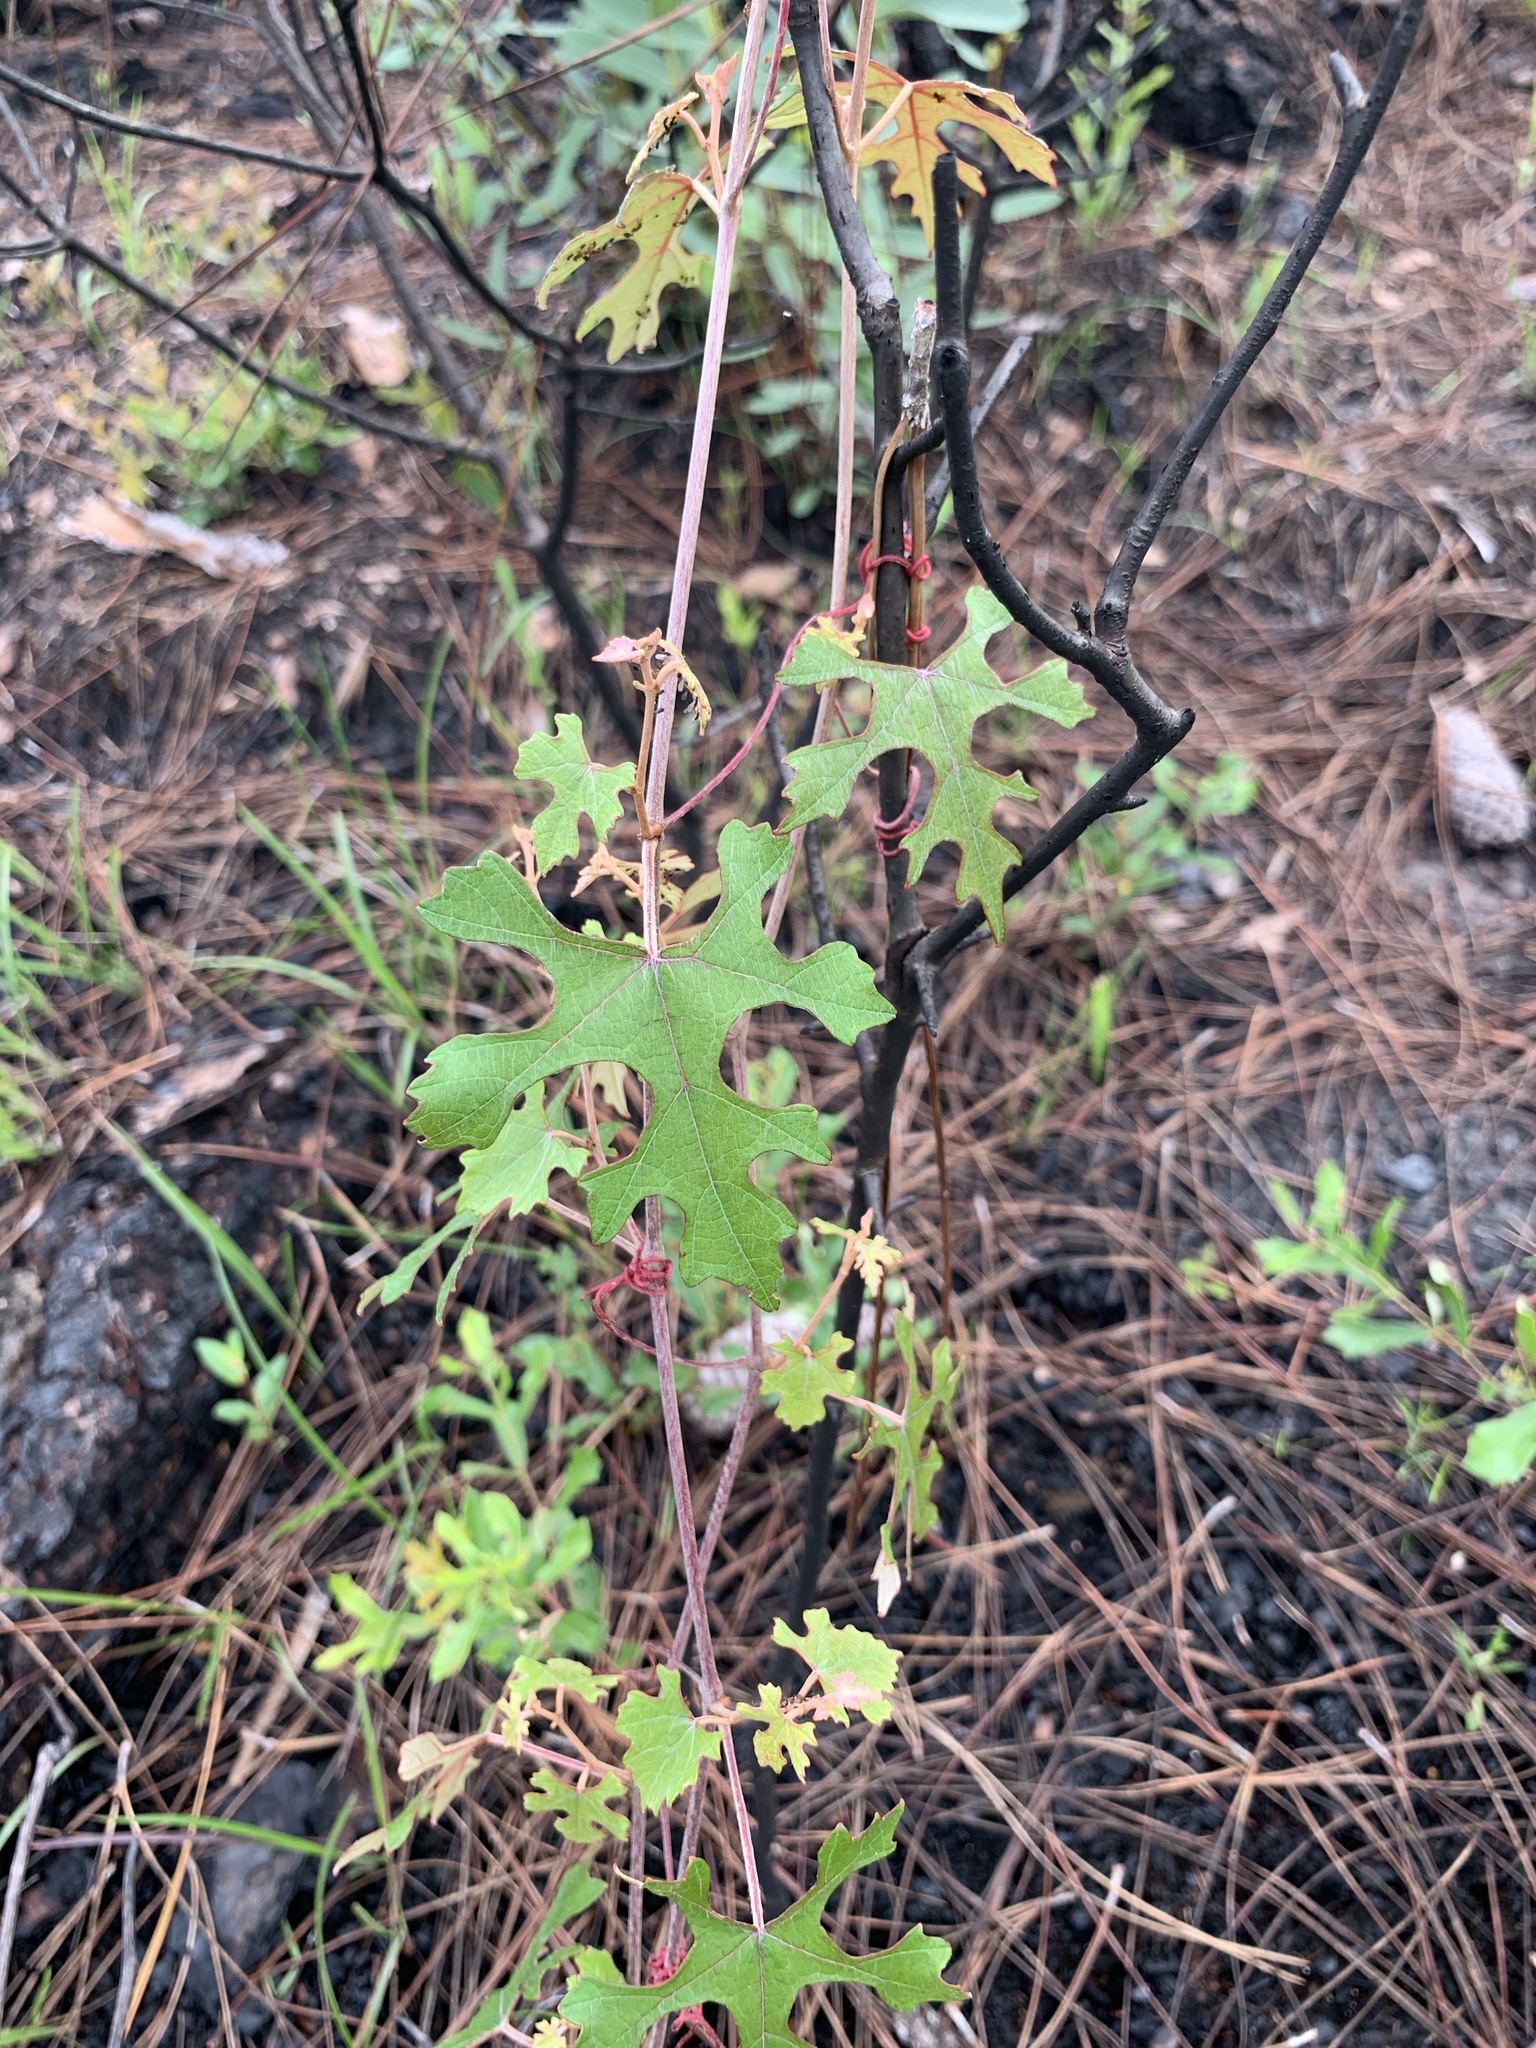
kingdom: Plantae
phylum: Tracheophyta
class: Magnoliopsida
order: Vitales
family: Vitaceae
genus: Vitis
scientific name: Vitis aestivalis
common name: Pigeon grape
